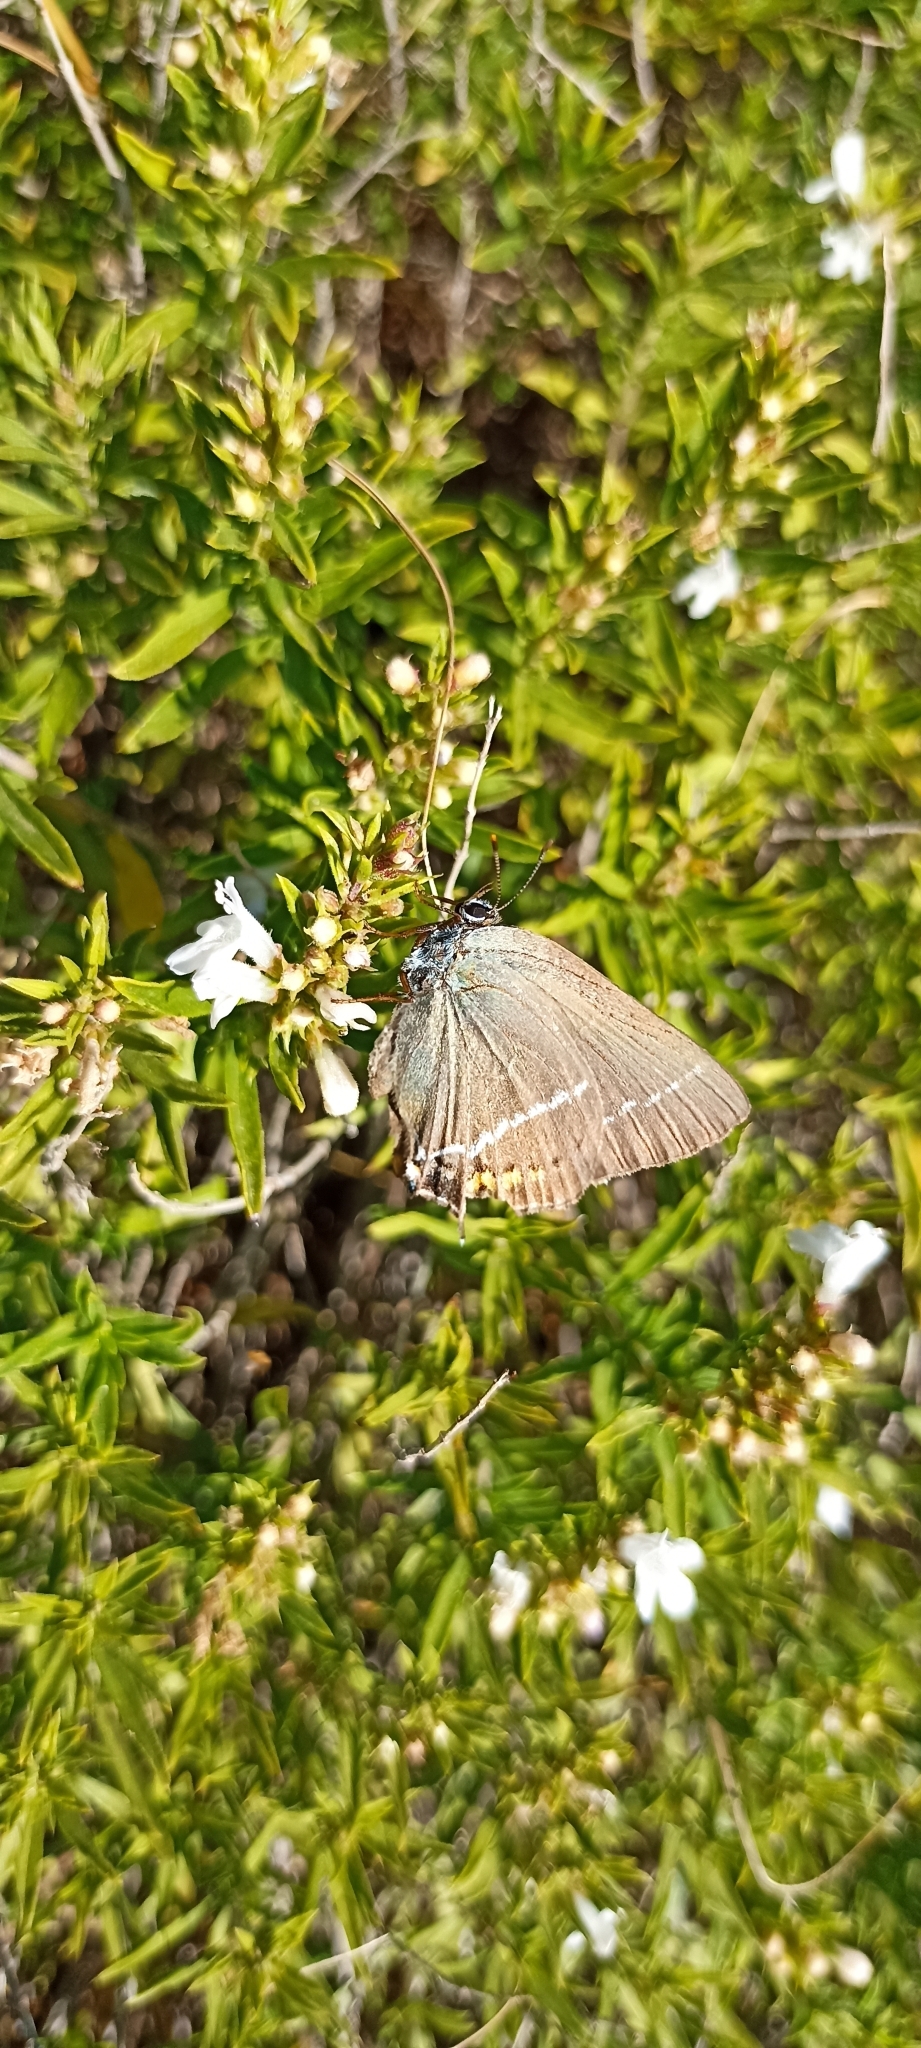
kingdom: Animalia
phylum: Arthropoda
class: Insecta
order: Lepidoptera
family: Lycaenidae
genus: Tuttiola
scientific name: Tuttiola spini
